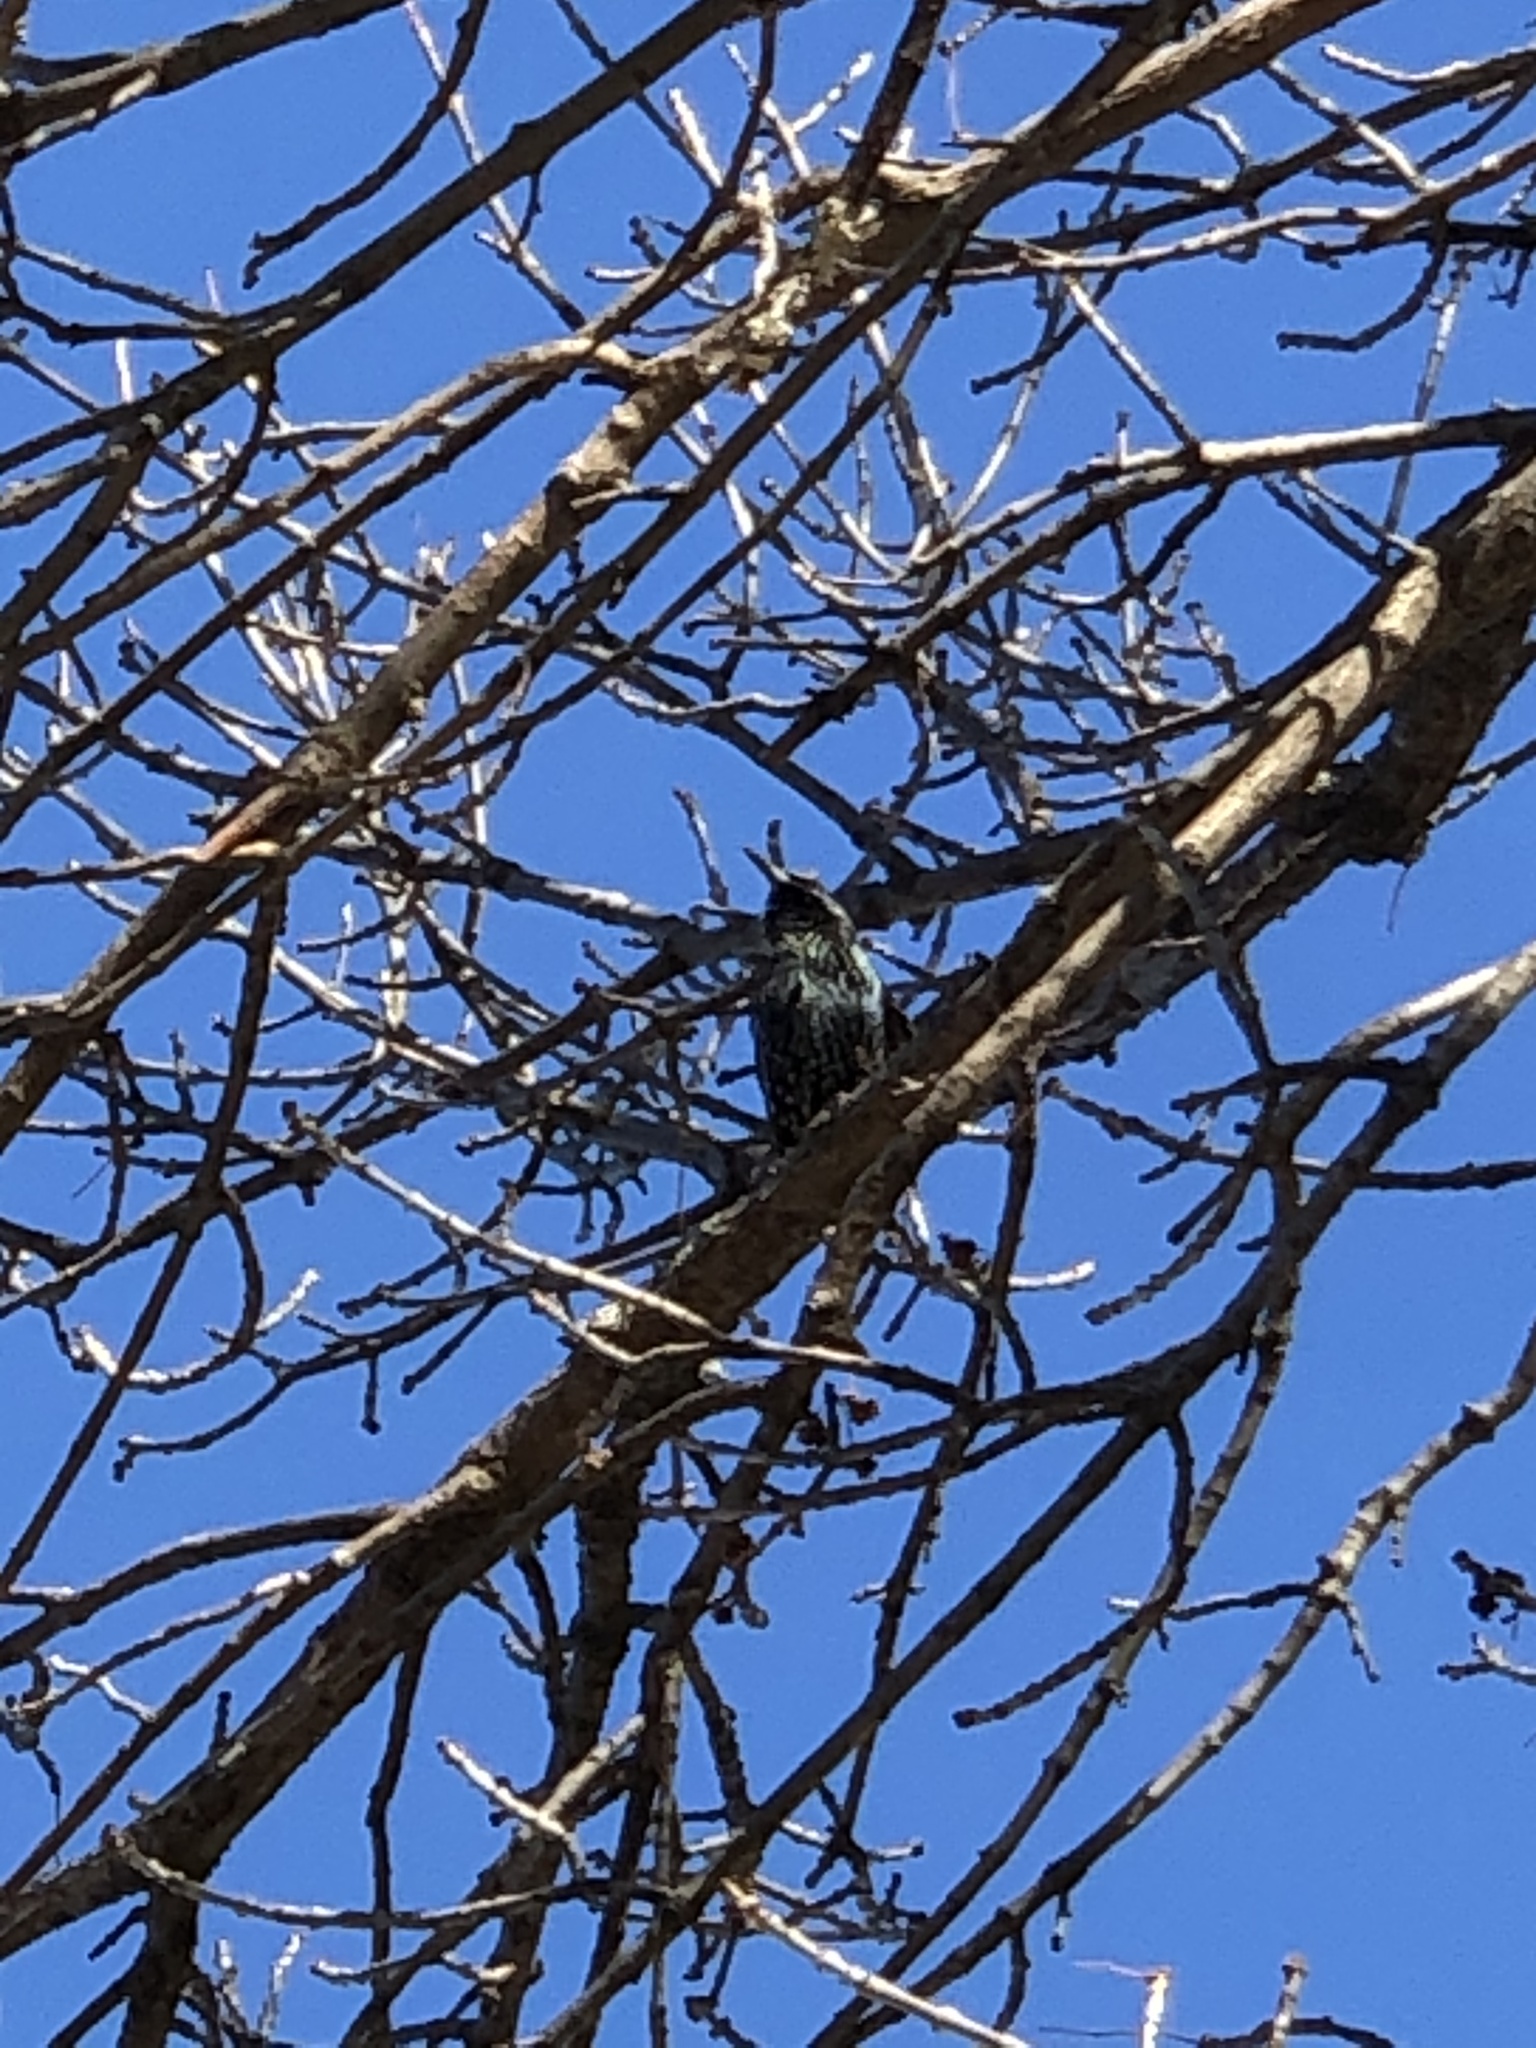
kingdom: Animalia
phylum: Chordata
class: Aves
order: Passeriformes
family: Sturnidae
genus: Sturnus
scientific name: Sturnus vulgaris
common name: Common starling
